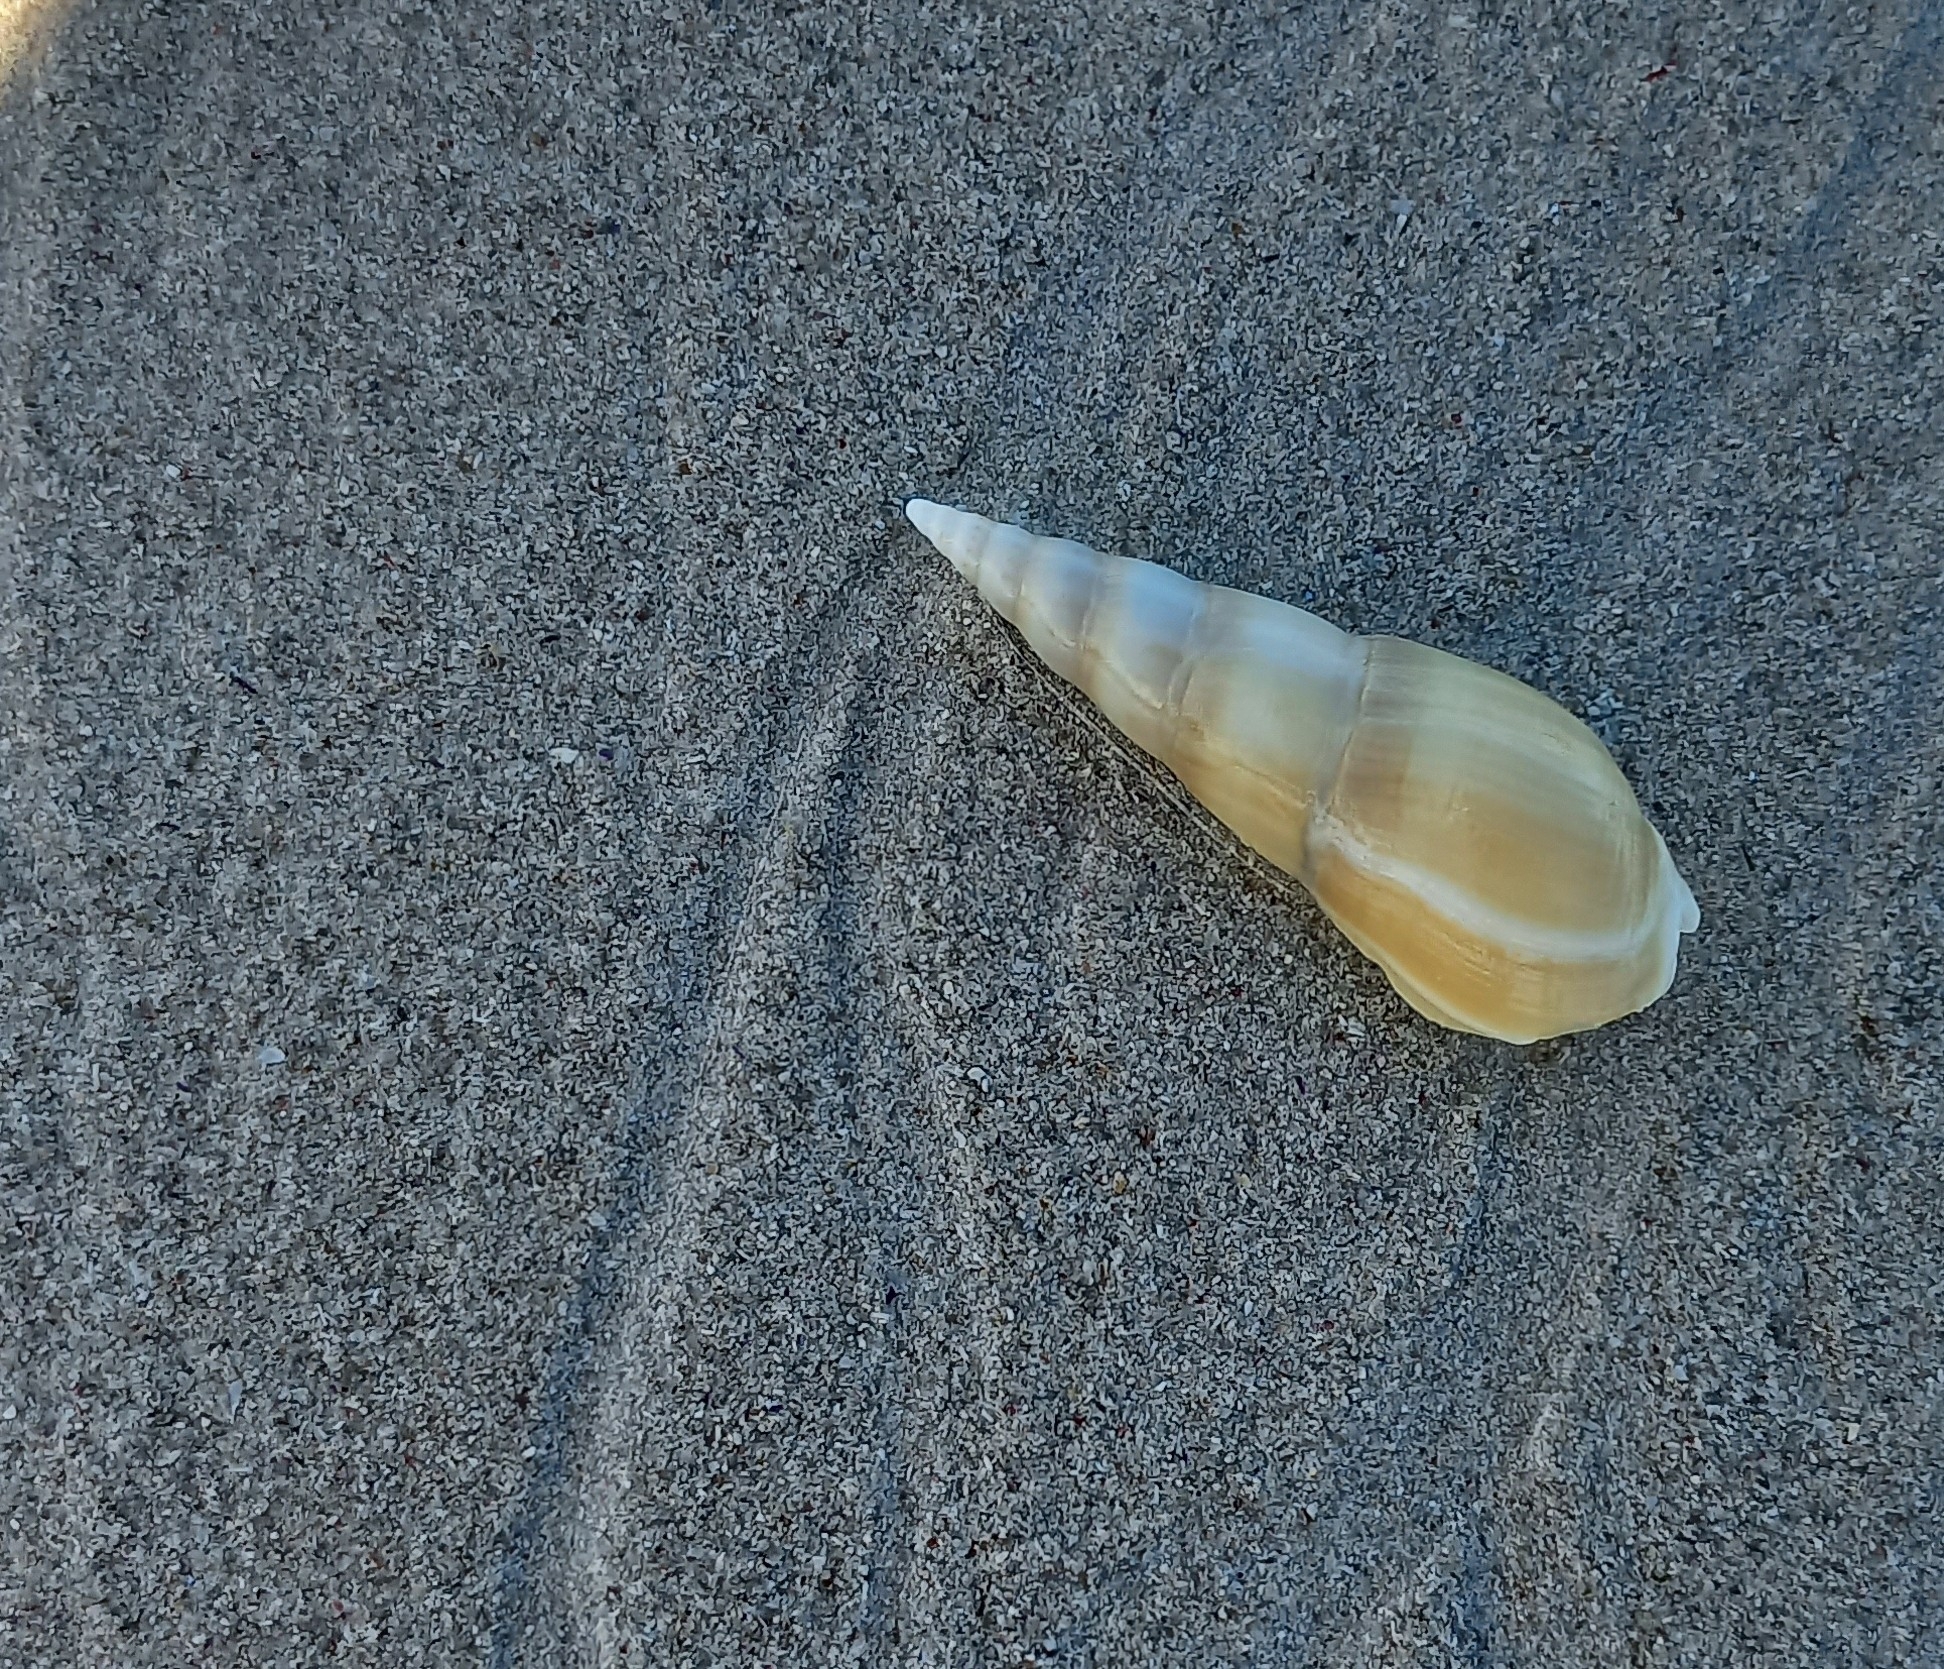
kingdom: Animalia
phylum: Mollusca
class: Gastropoda
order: Neogastropoda
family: Nassariidae
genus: Bullia
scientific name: Bullia digitalis
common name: Finger plough shell
